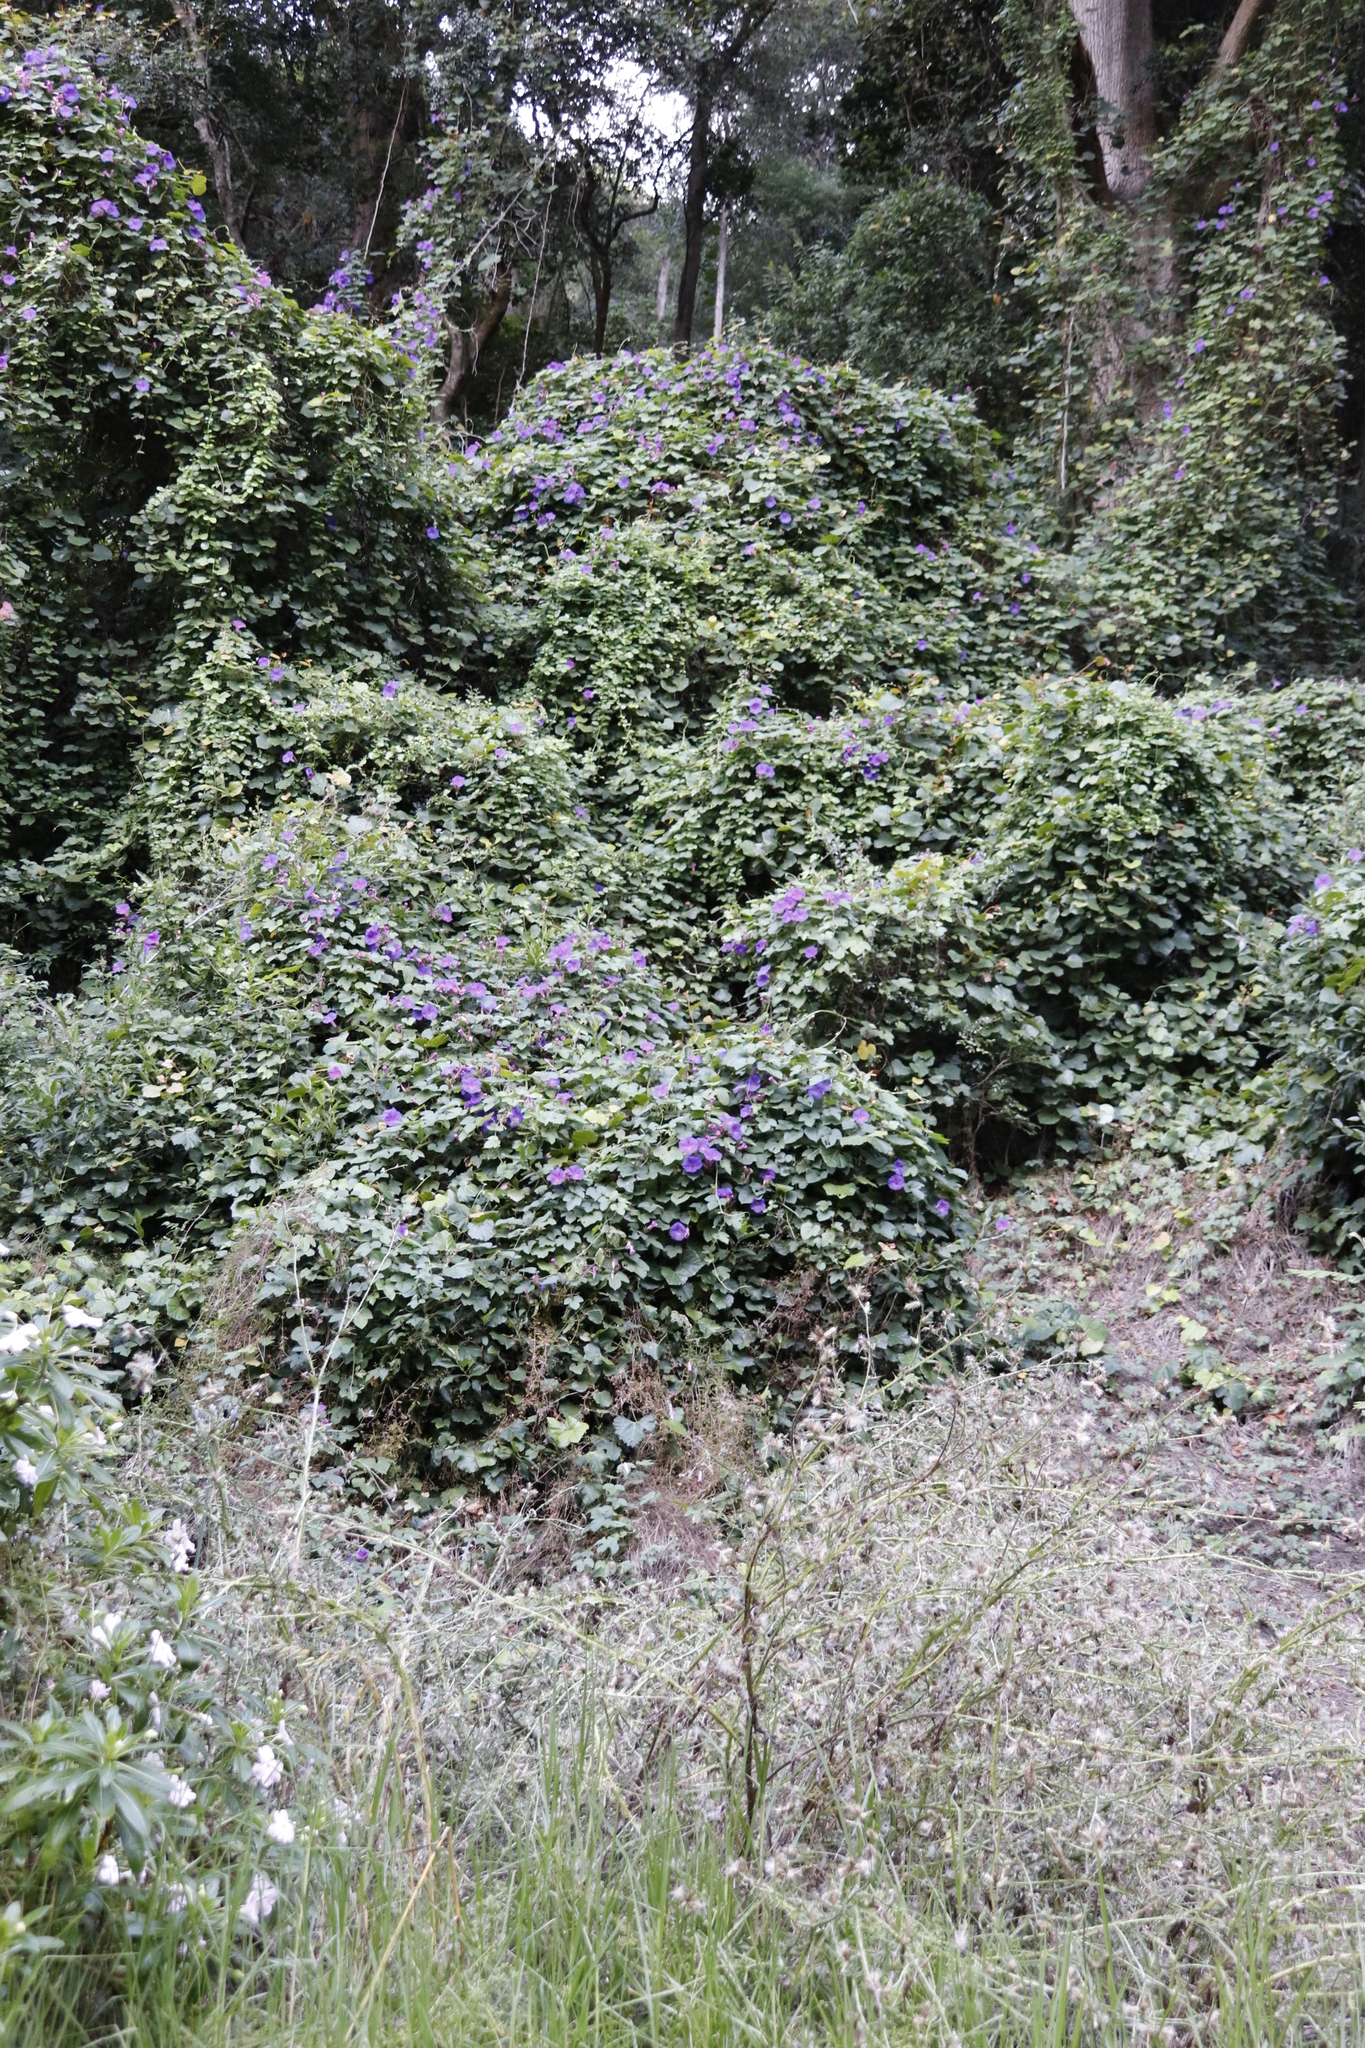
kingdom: Plantae
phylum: Tracheophyta
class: Magnoliopsida
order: Solanales
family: Convolvulaceae
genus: Ipomoea
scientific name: Ipomoea indica
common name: Blue dawnflower
